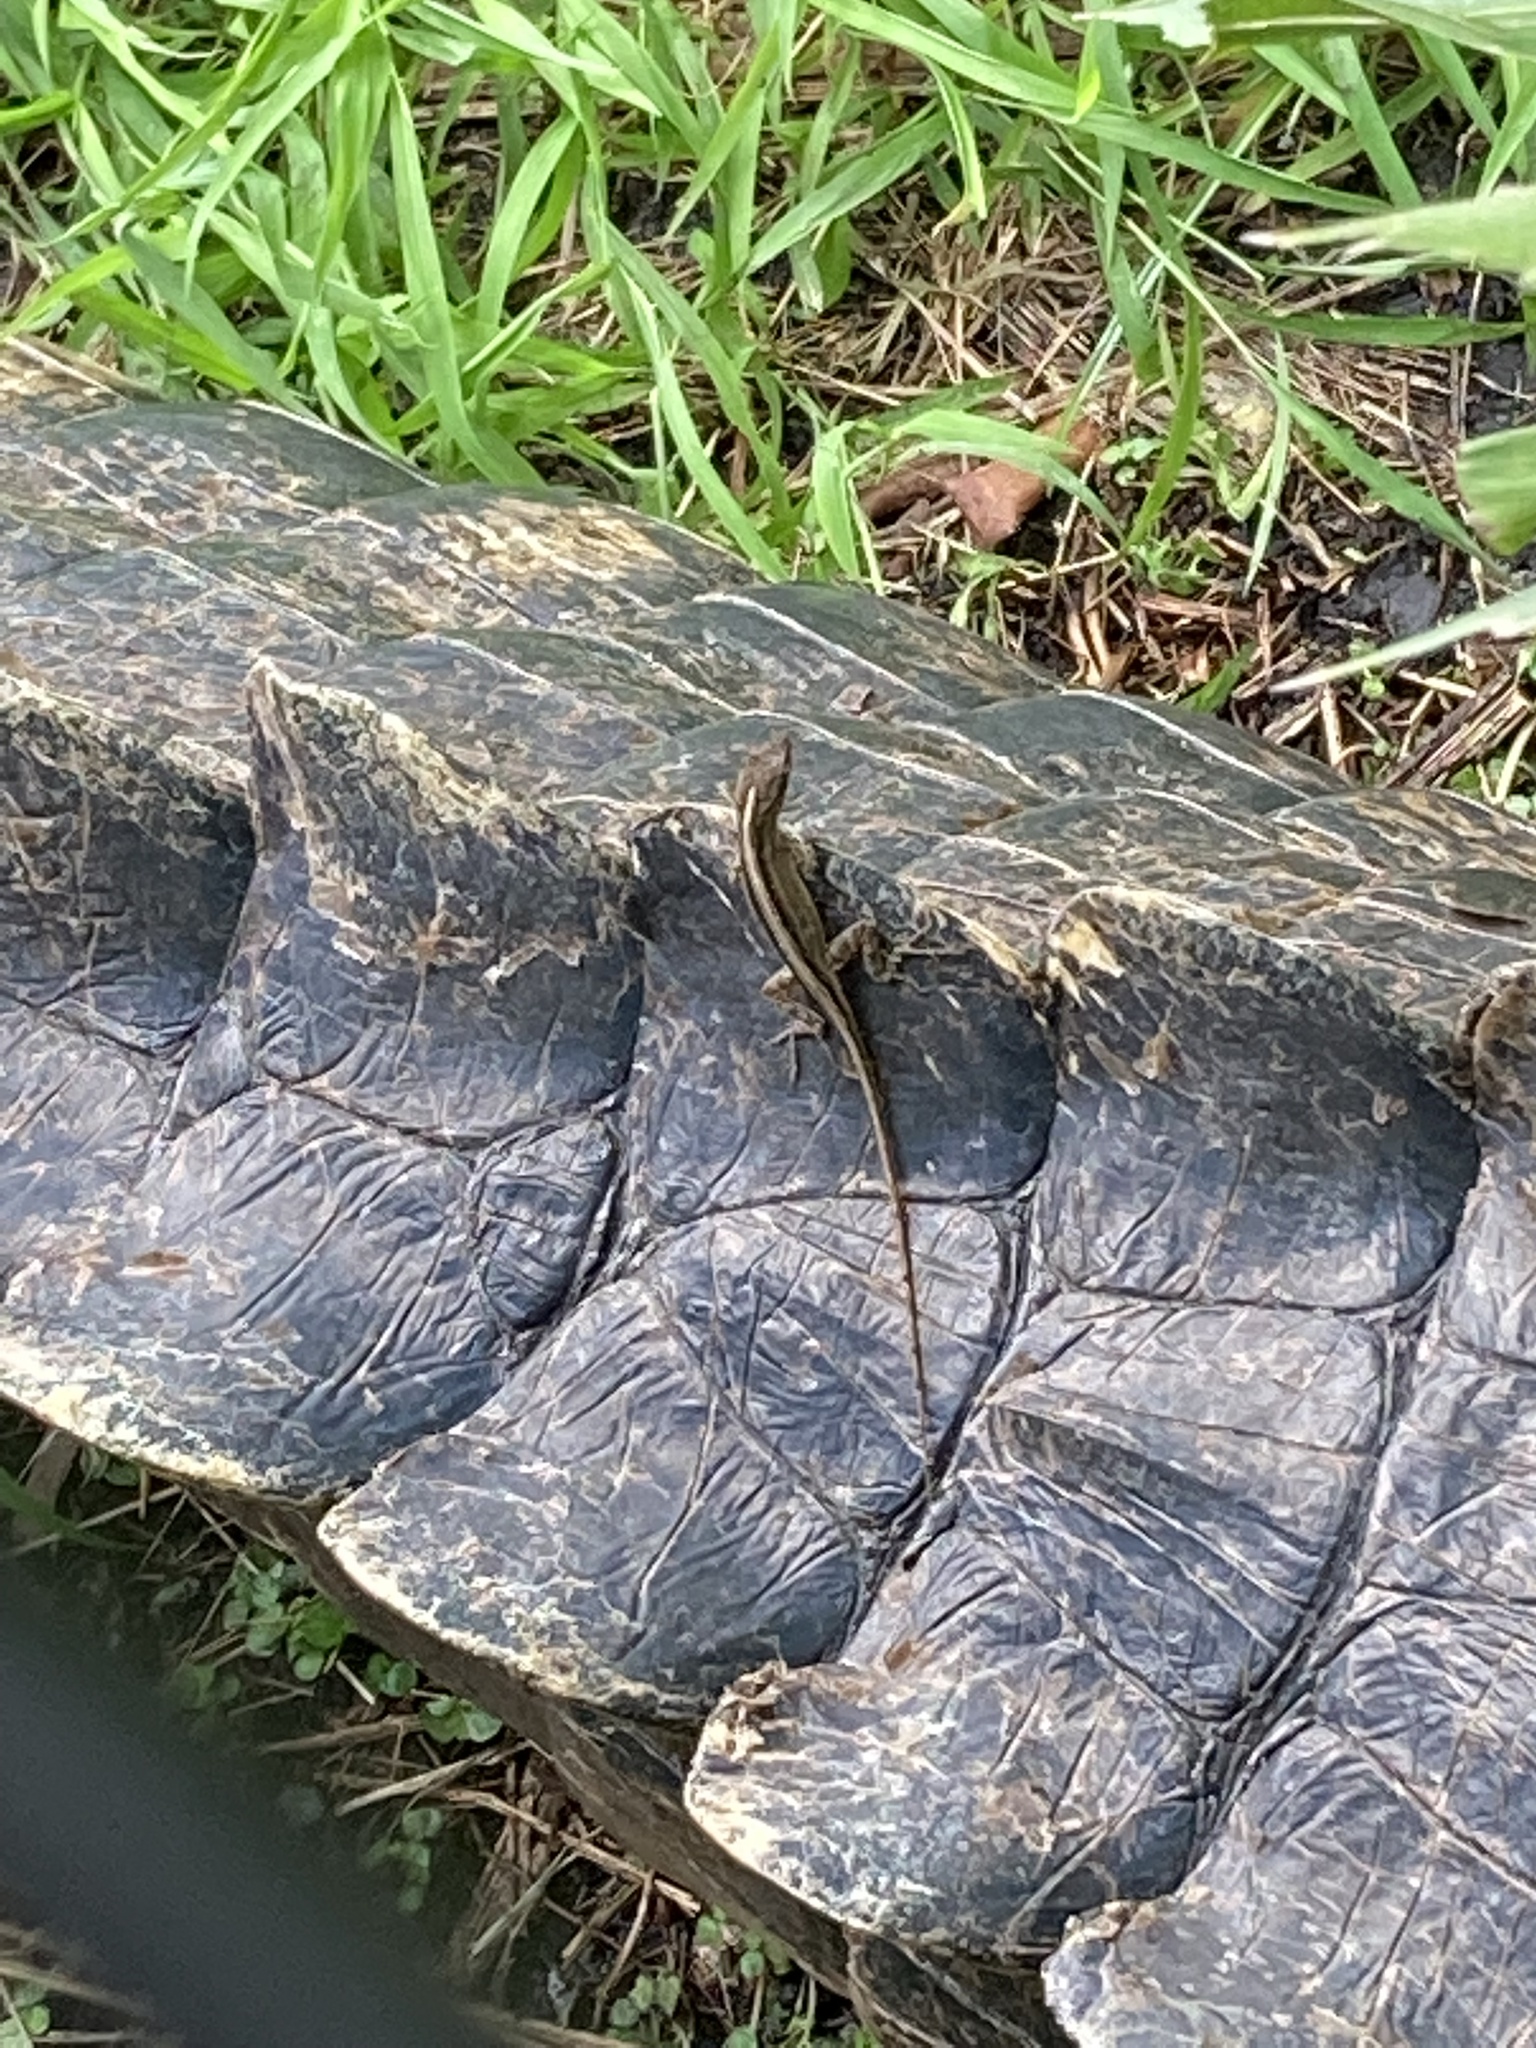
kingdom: Animalia
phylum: Chordata
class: Squamata
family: Dactyloidae
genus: Anolis
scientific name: Anolis sagrei
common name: Brown anole
